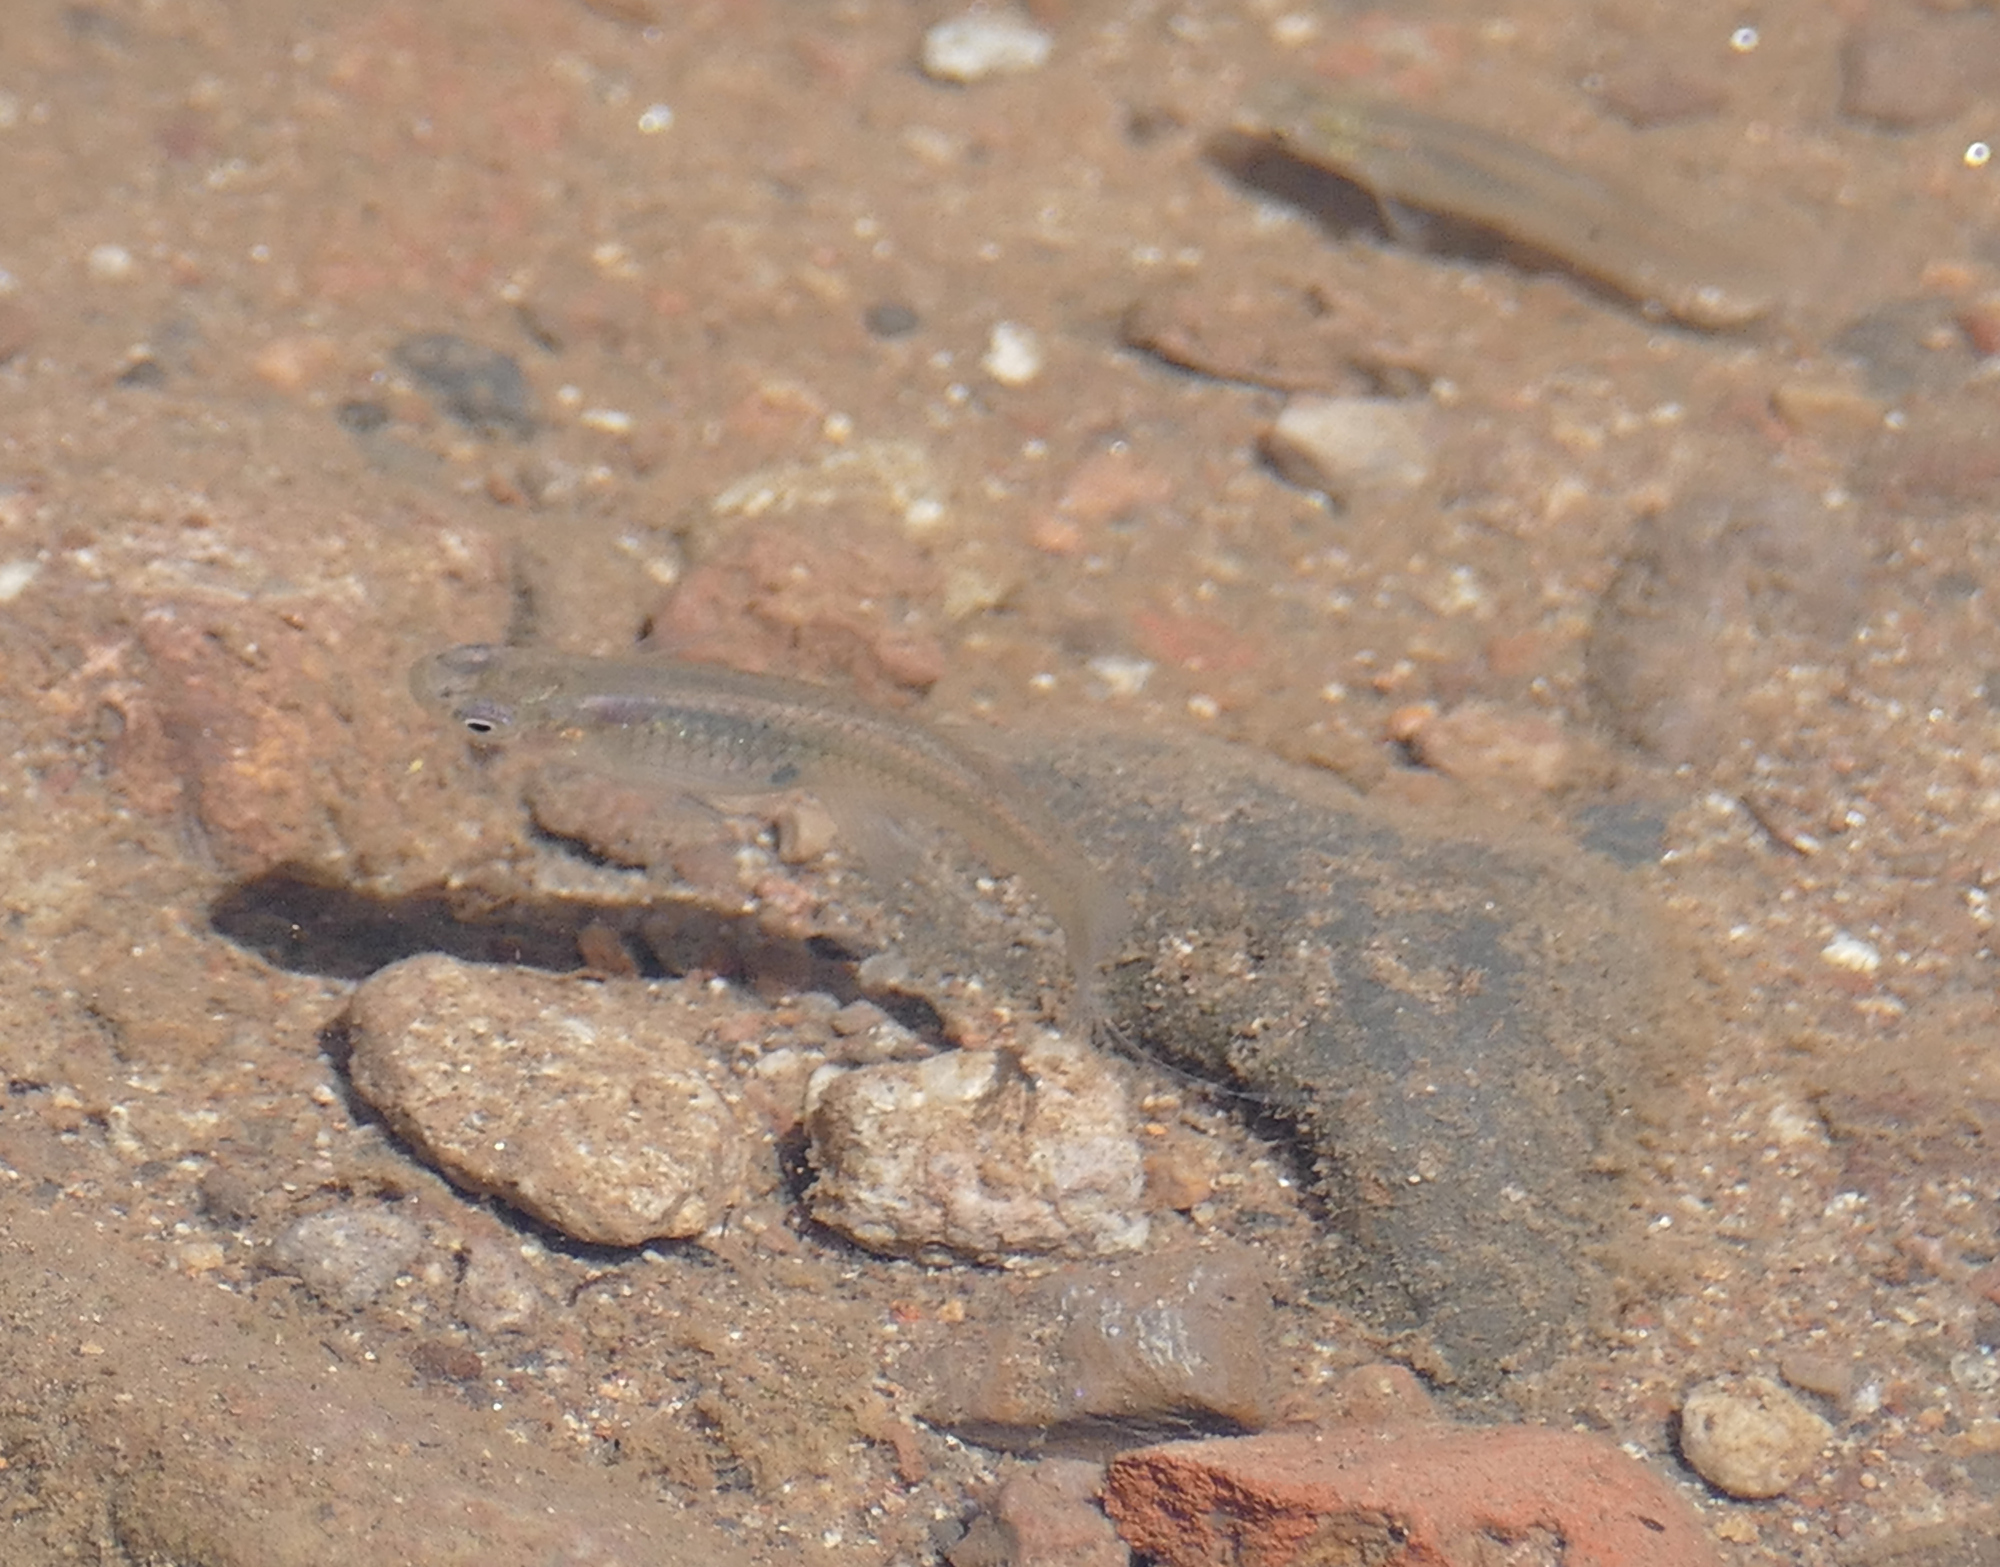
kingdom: Animalia
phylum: Chordata
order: Cyprinodontiformes
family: Poeciliidae
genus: Gambusia
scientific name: Gambusia affinis
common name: Mosquitofish
